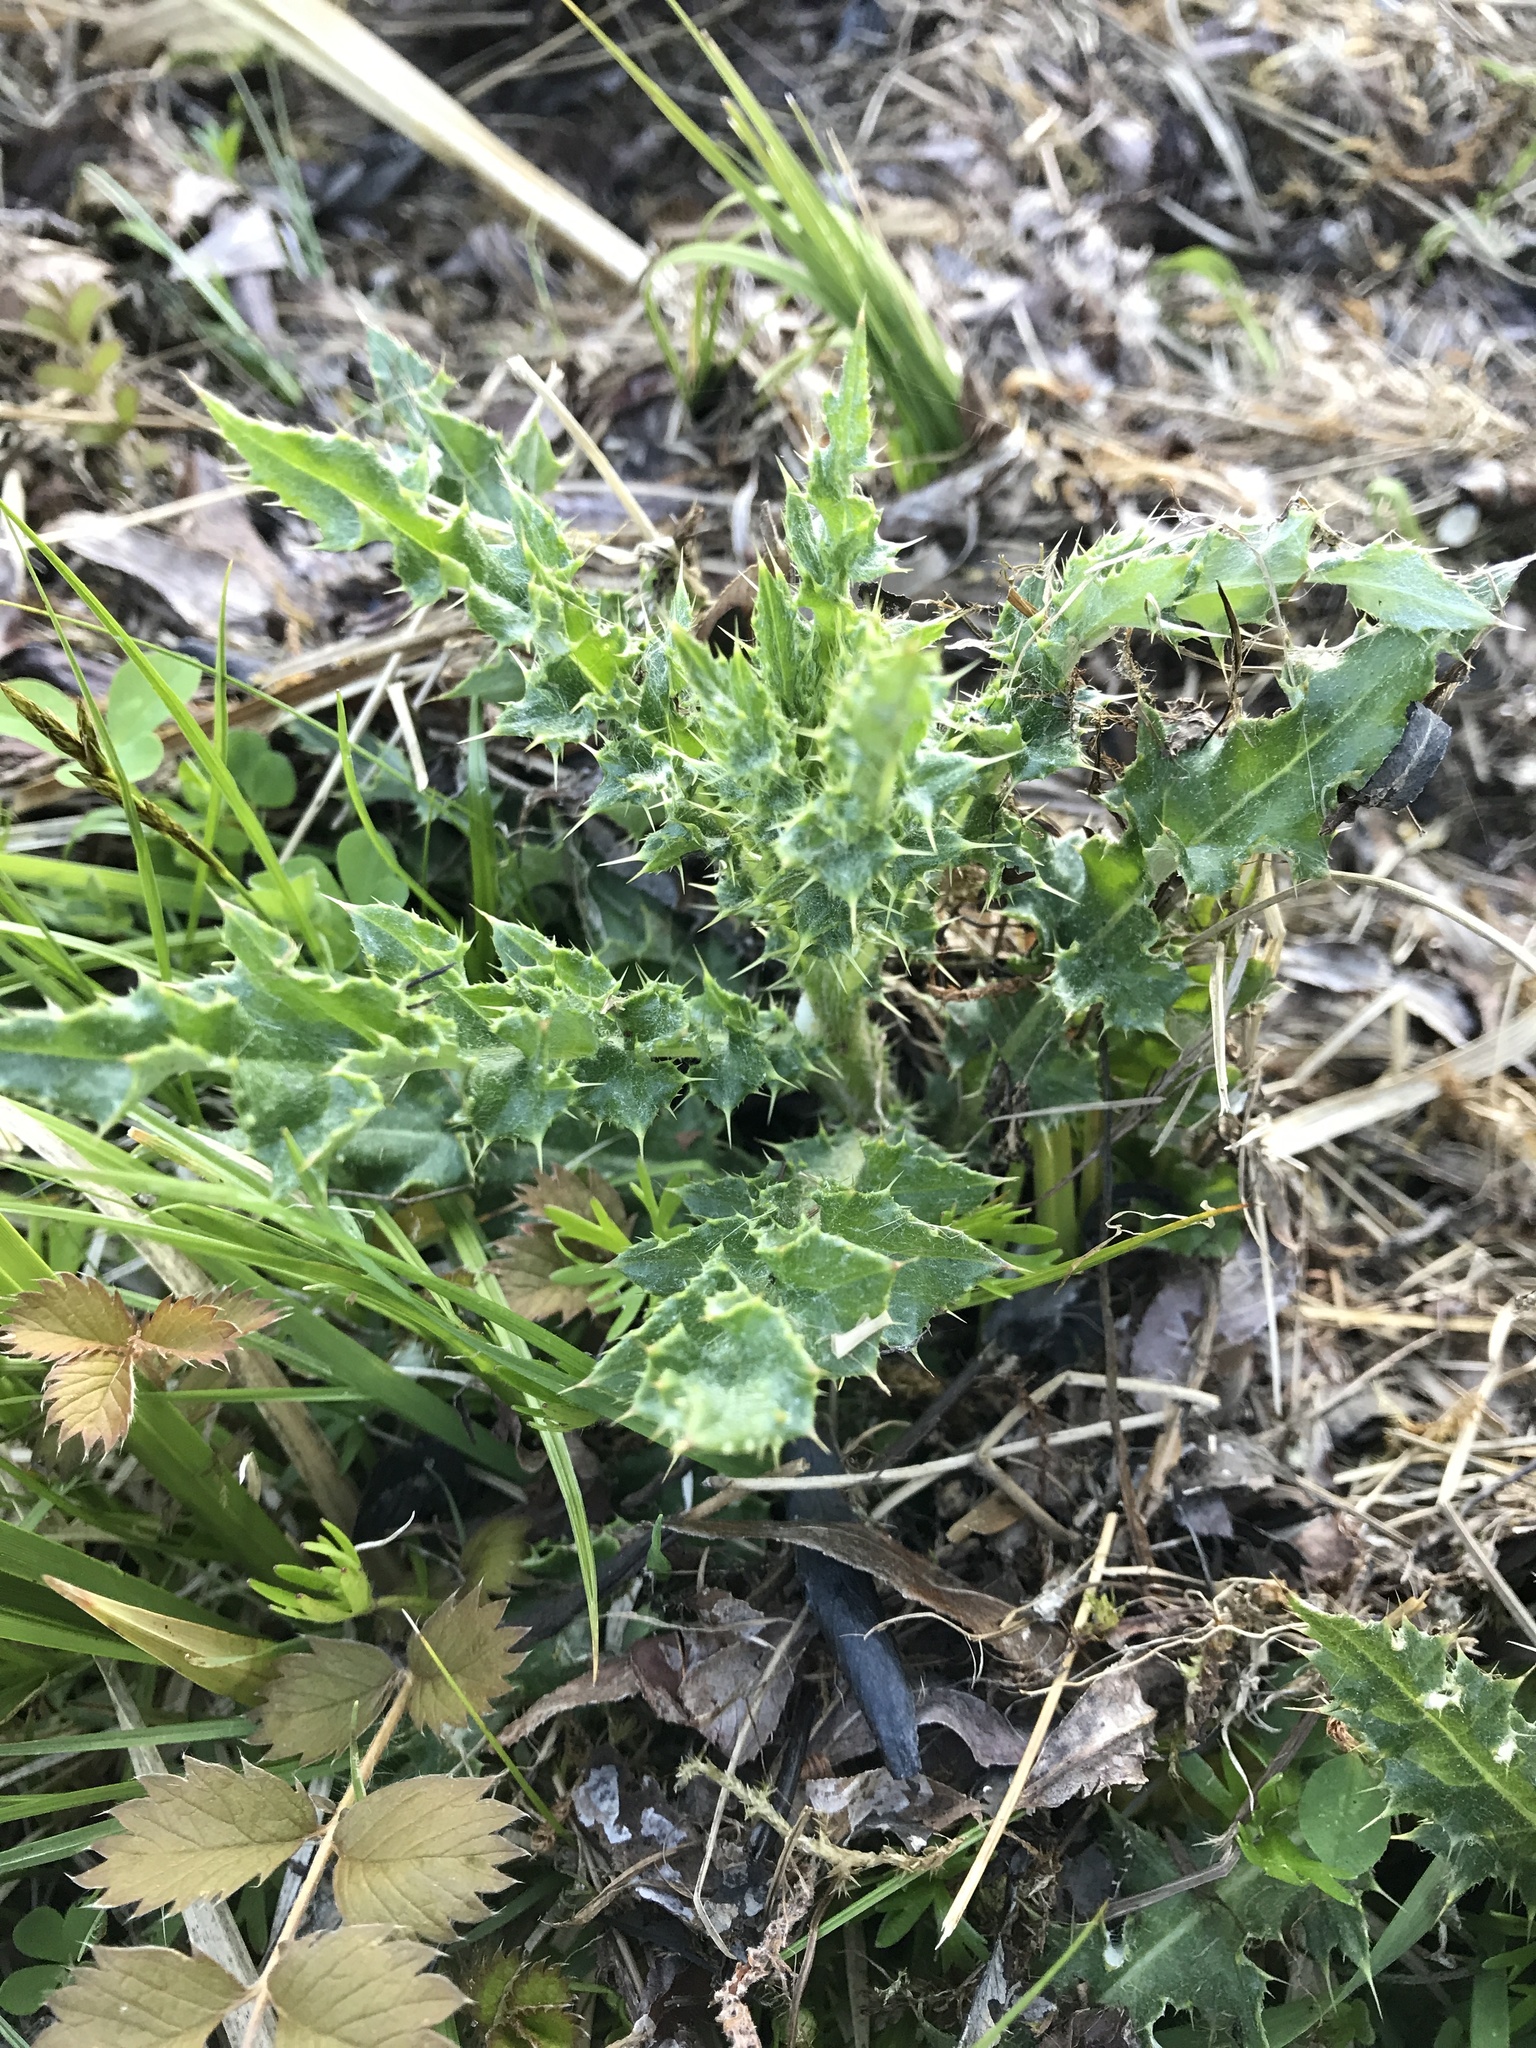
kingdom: Plantae
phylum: Tracheophyta
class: Magnoliopsida
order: Asterales
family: Asteraceae
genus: Cirsium
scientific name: Cirsium arvense
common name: Creeping thistle
